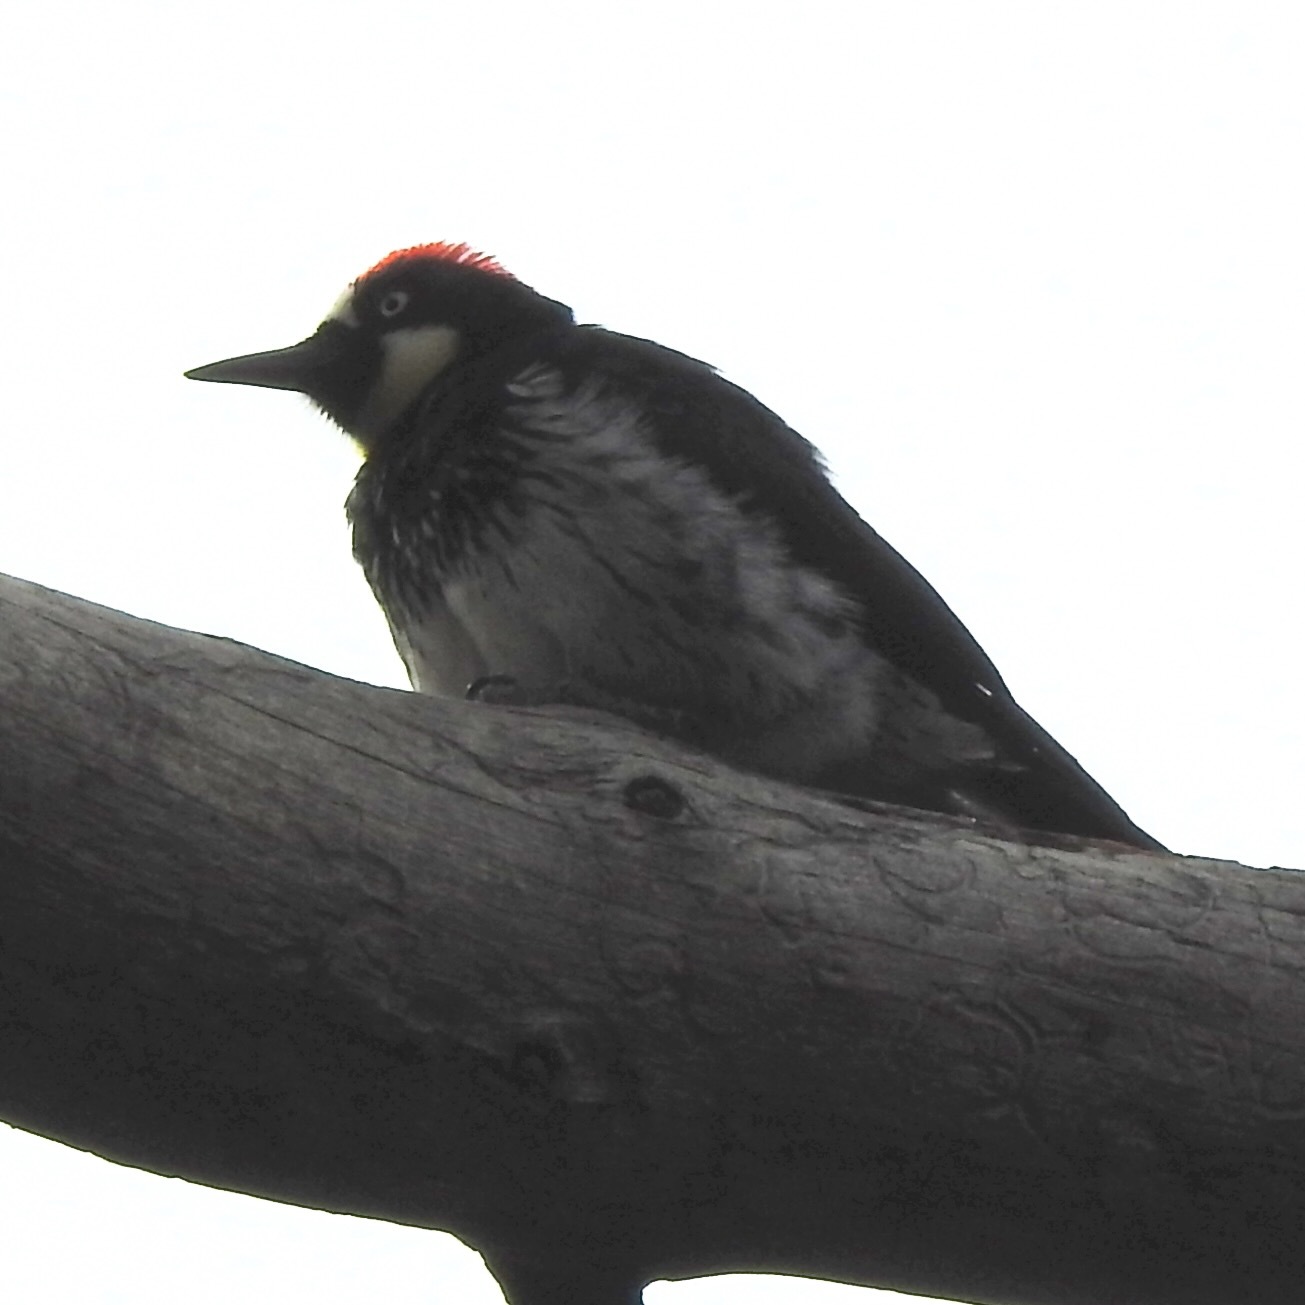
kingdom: Animalia
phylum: Chordata
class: Aves
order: Piciformes
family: Picidae
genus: Melanerpes
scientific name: Melanerpes formicivorus
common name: Acorn woodpecker
